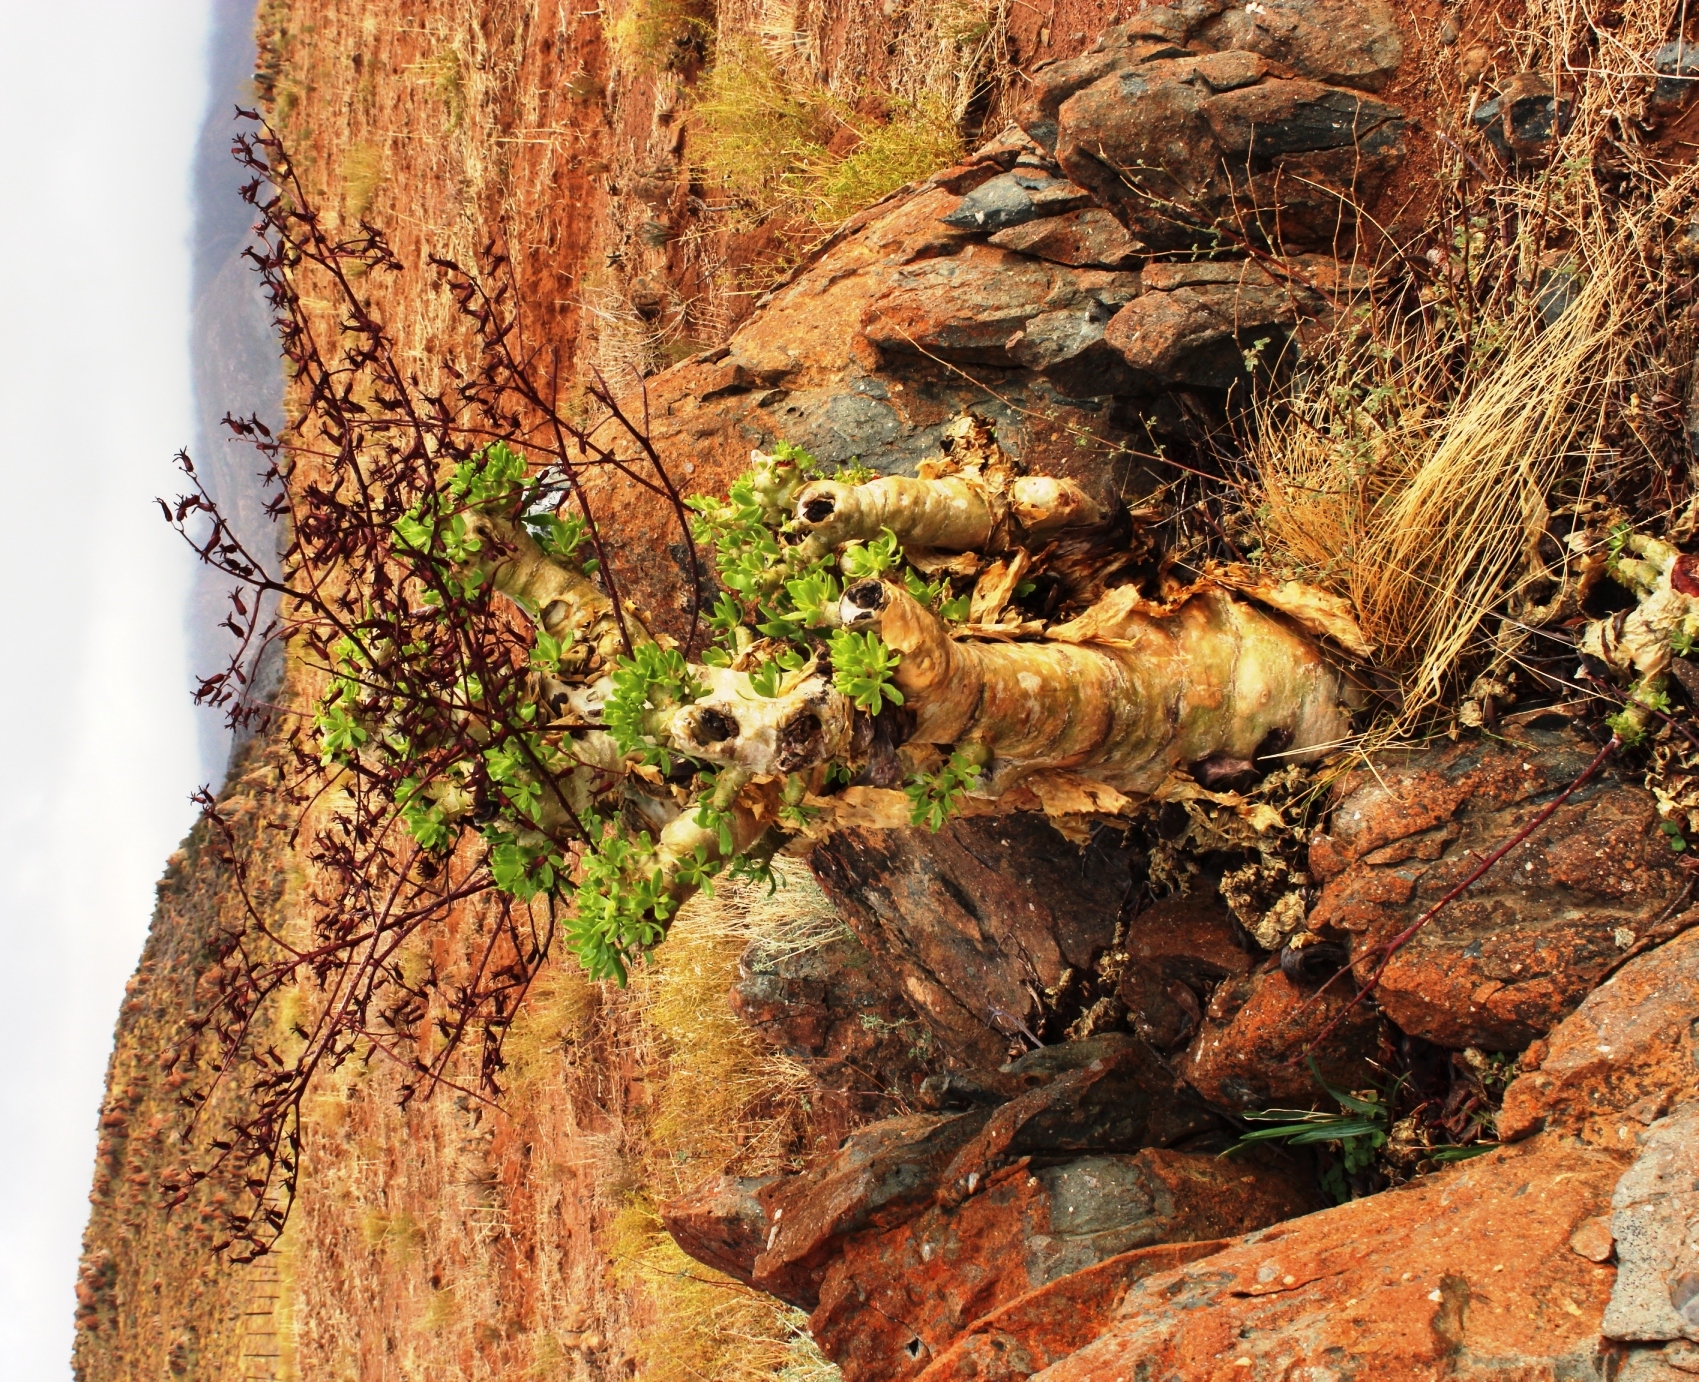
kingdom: Plantae
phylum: Tracheophyta
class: Magnoliopsida
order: Saxifragales
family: Crassulaceae
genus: Tylecodon
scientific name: Tylecodon paniculatus
